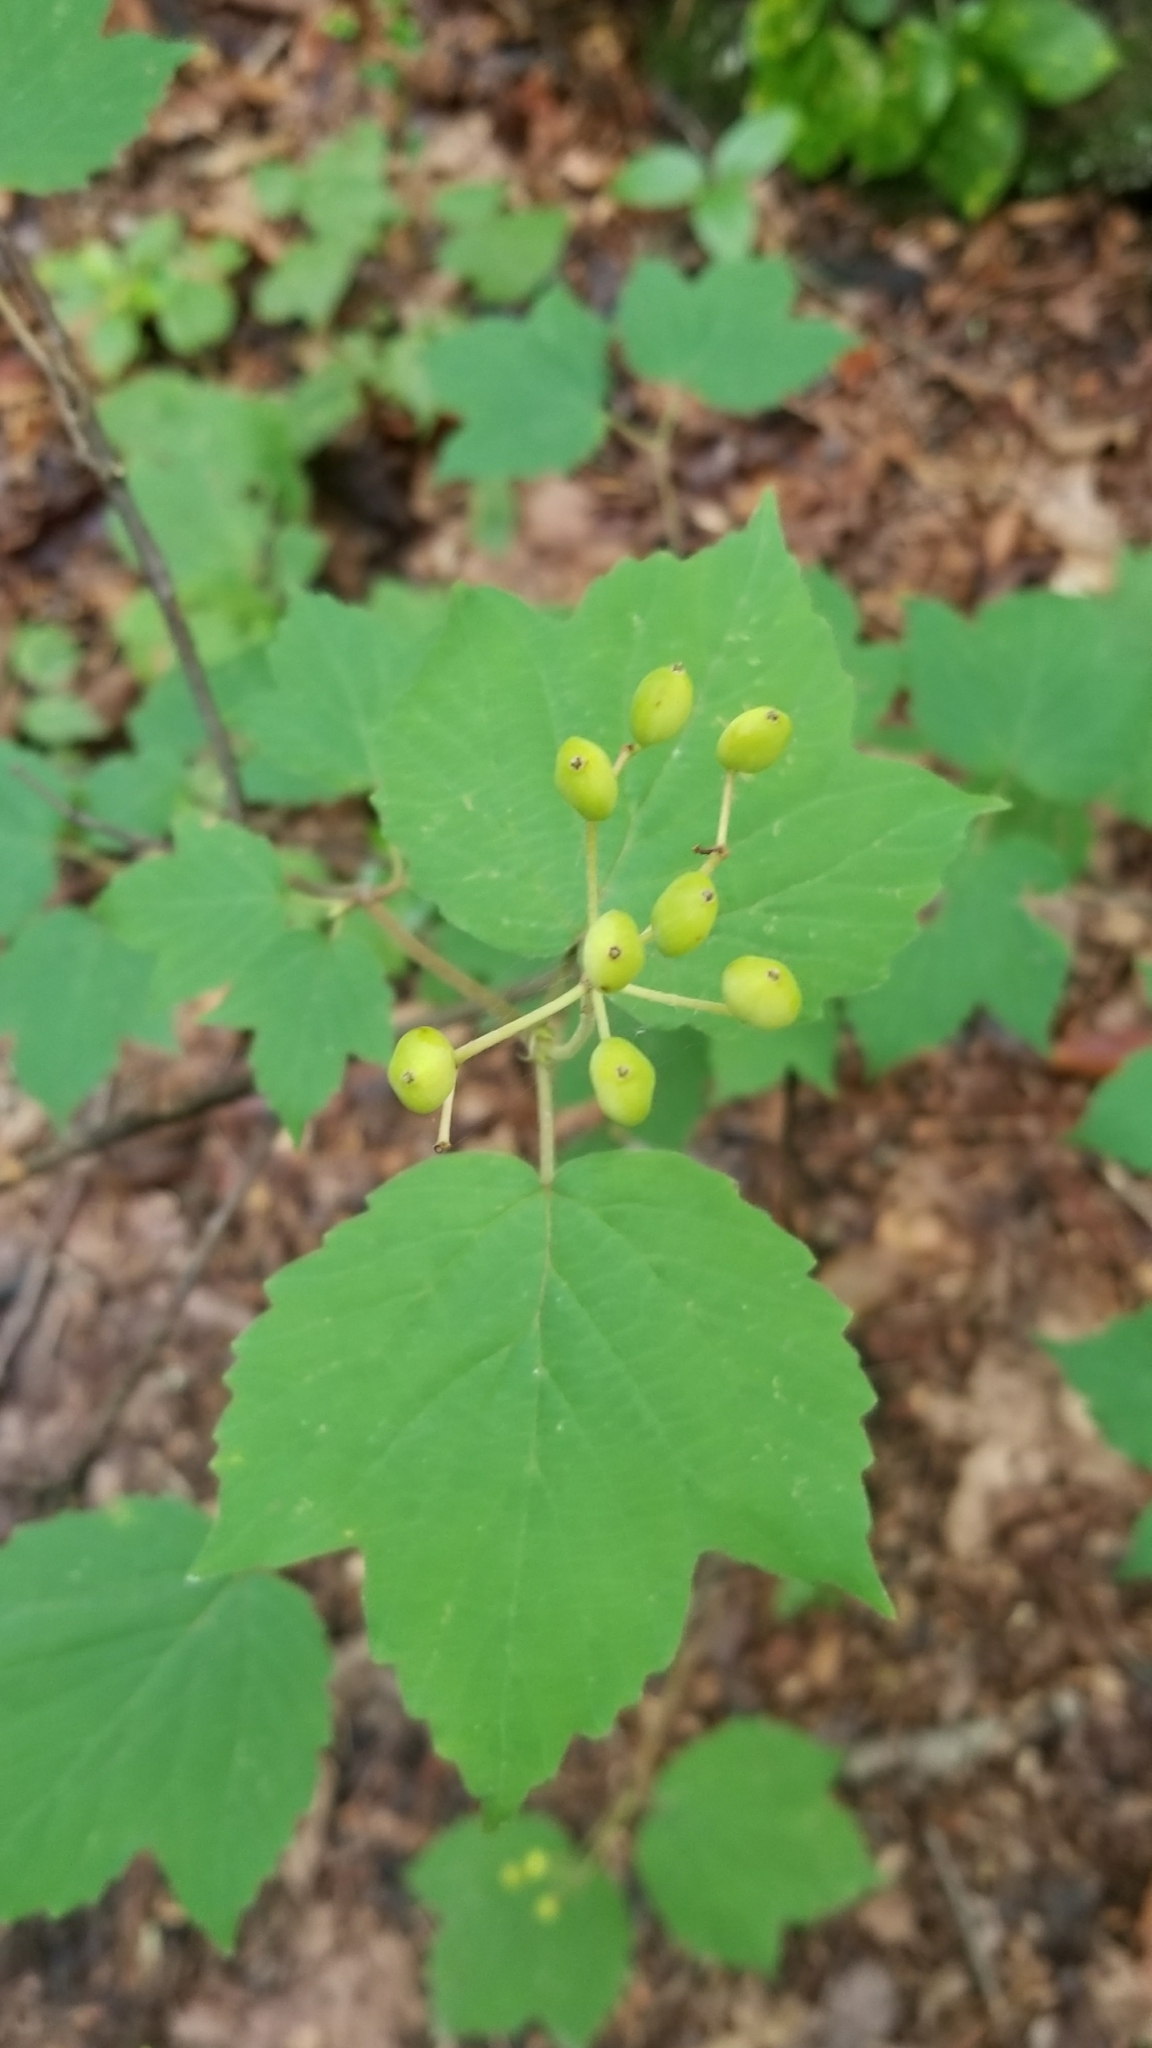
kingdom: Plantae
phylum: Tracheophyta
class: Magnoliopsida
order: Dipsacales
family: Viburnaceae
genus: Viburnum
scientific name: Viburnum acerifolium
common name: Dockmackie
